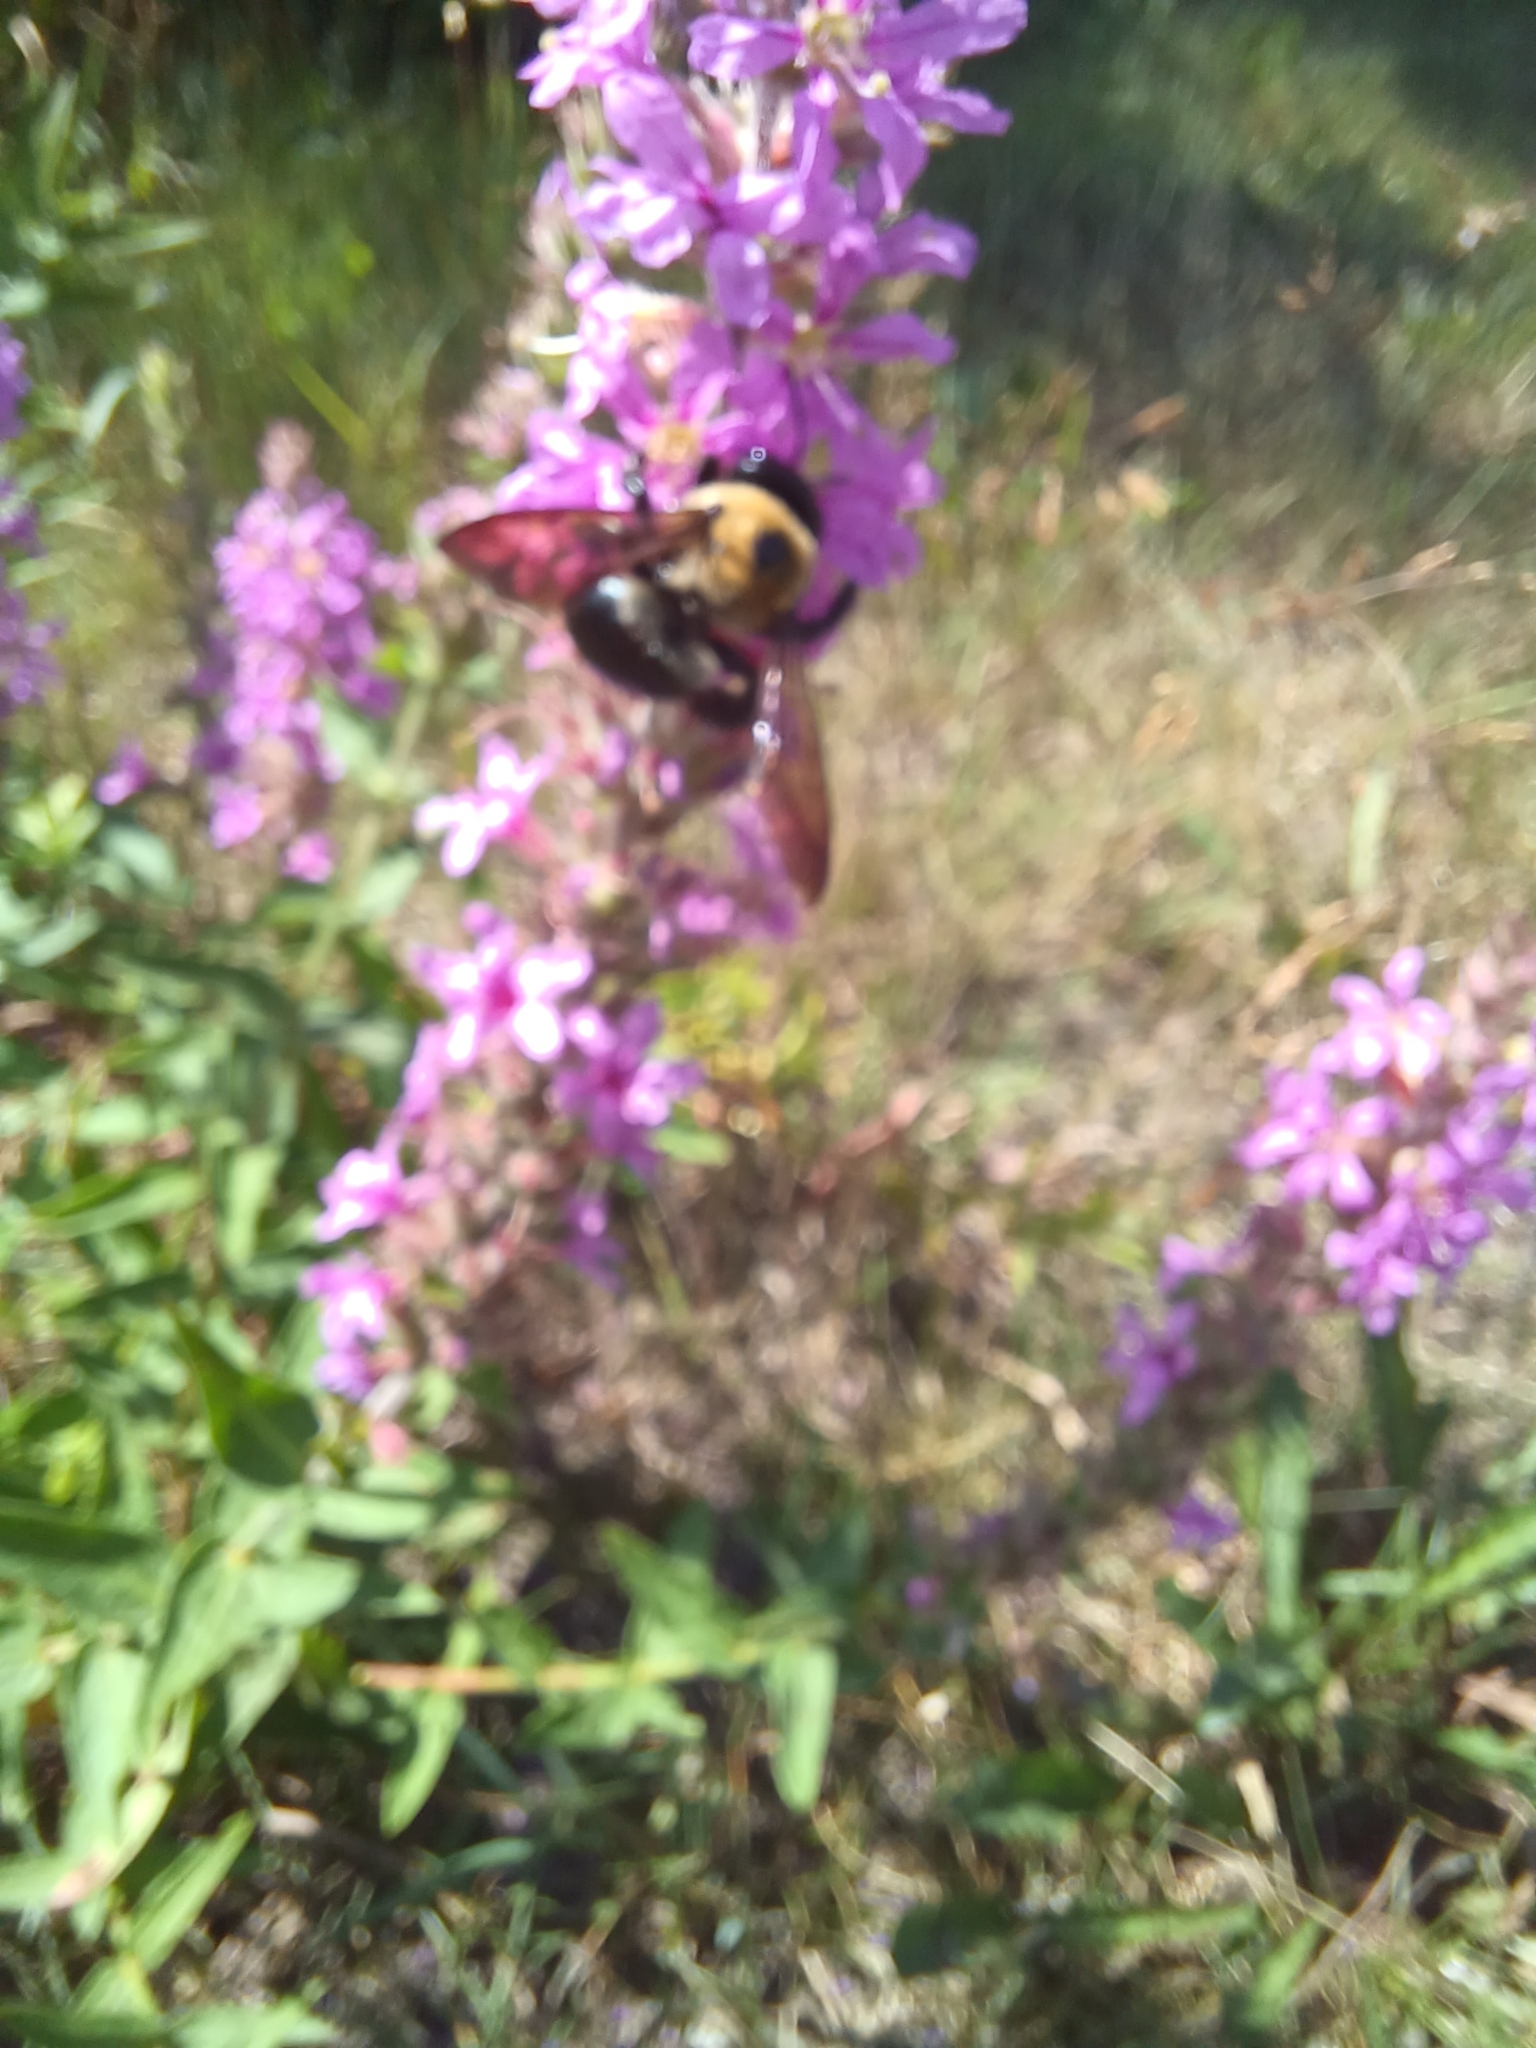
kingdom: Animalia
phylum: Arthropoda
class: Insecta
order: Hymenoptera
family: Apidae
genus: Xylocopa
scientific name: Xylocopa virginica
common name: Carpenter bee
